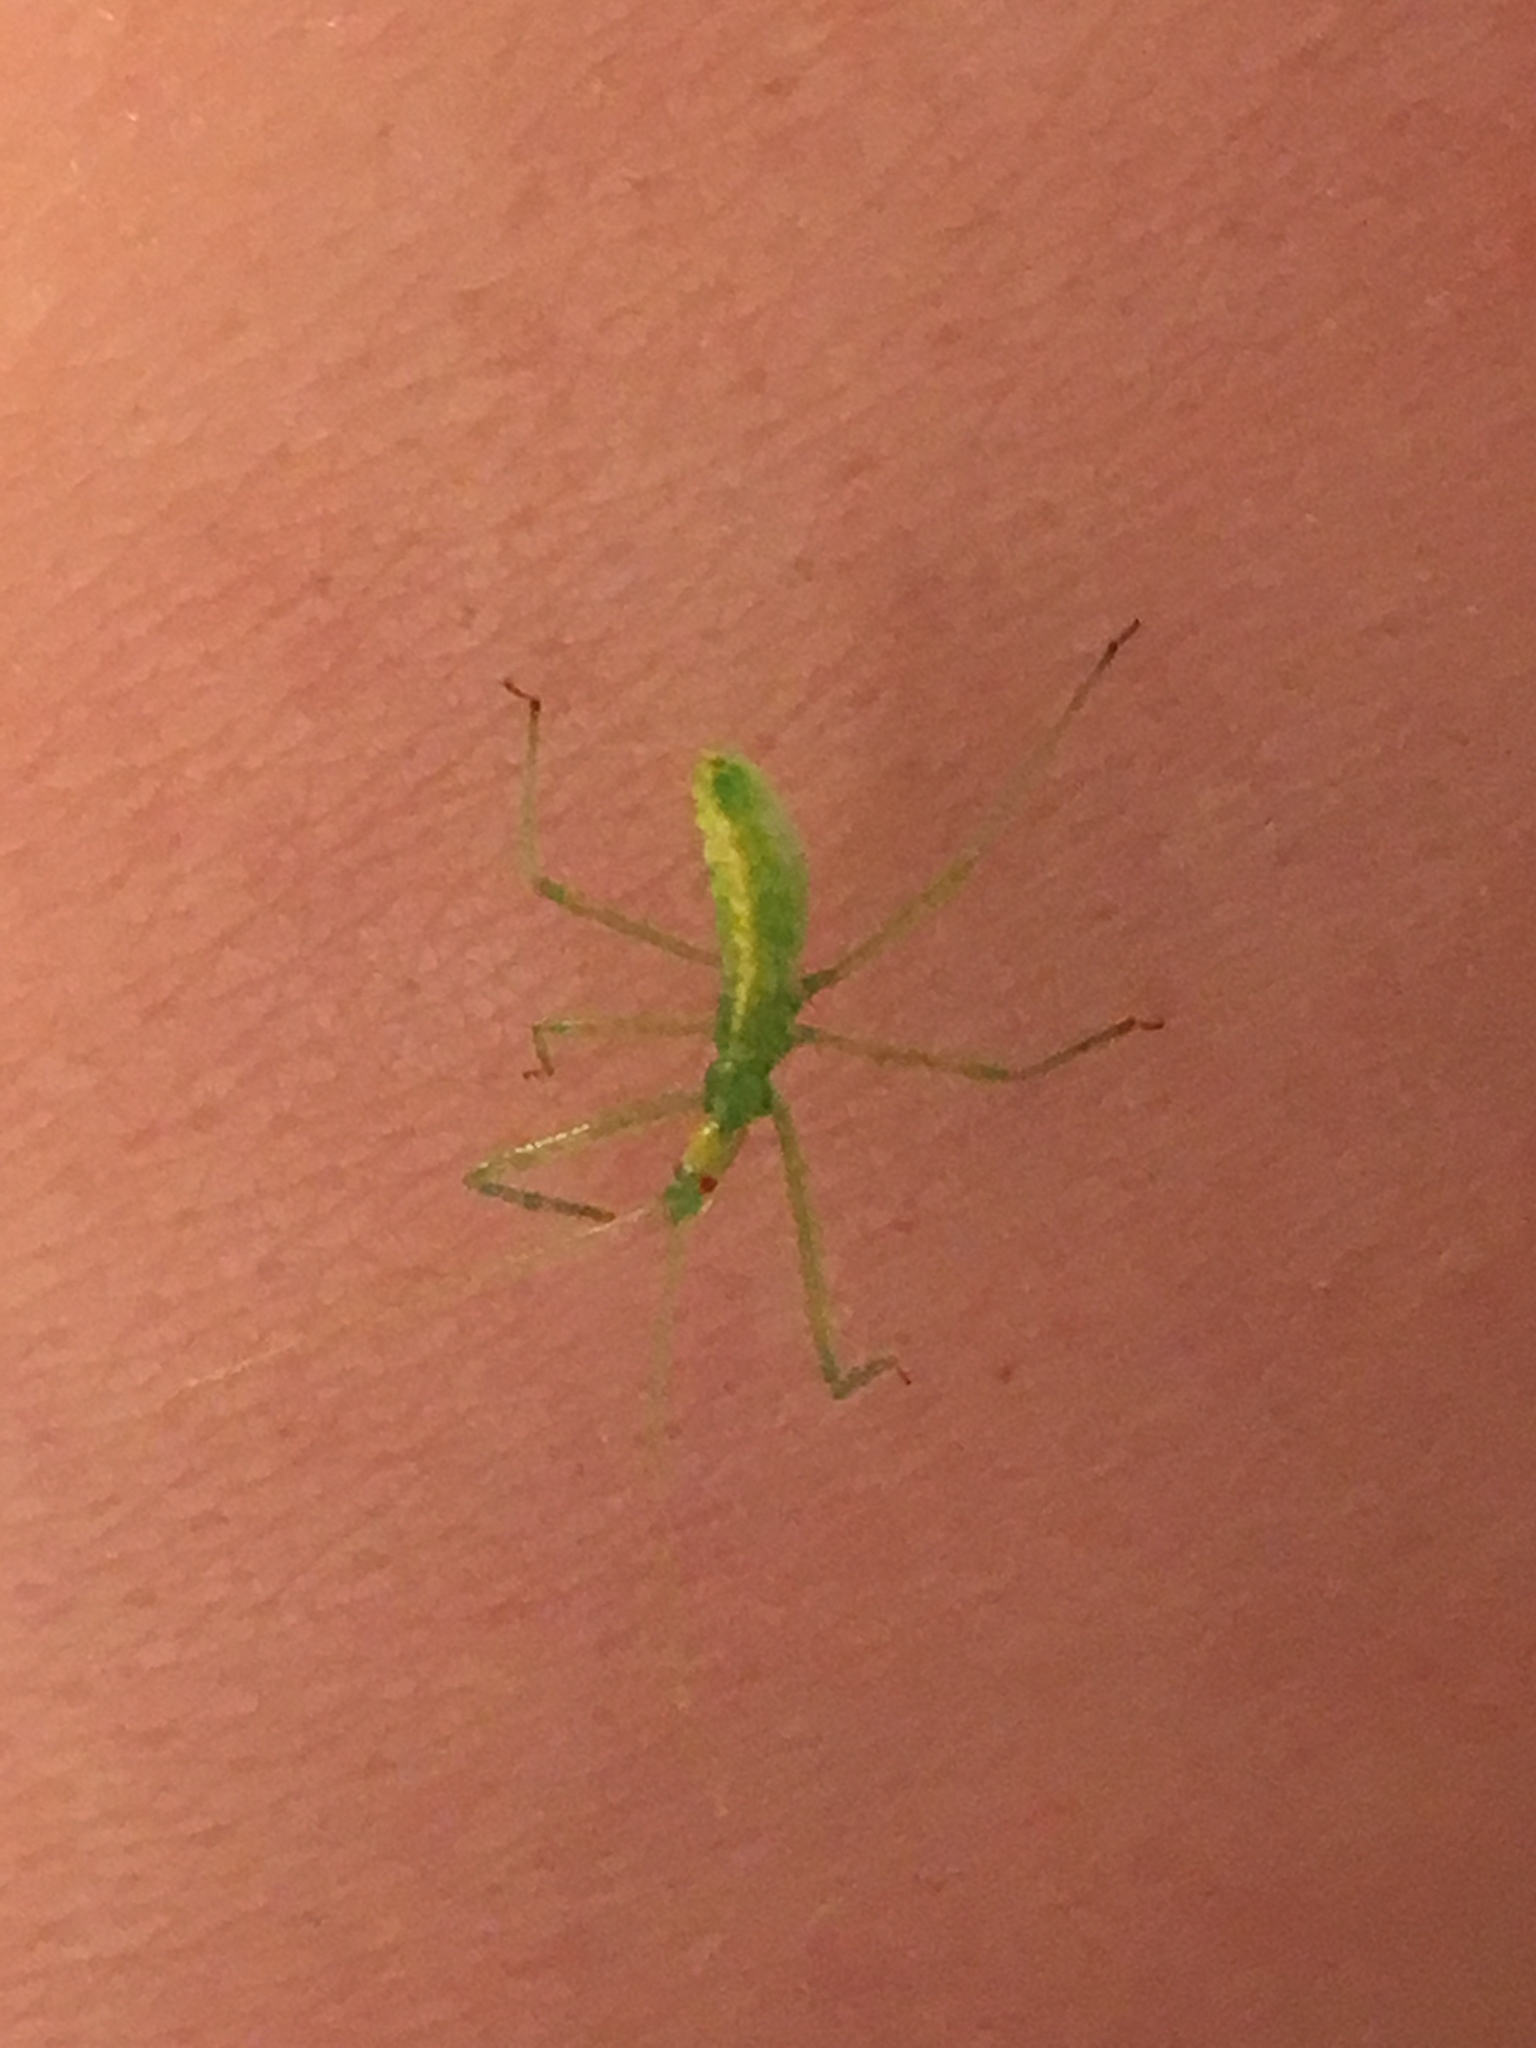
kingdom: Animalia
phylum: Arthropoda
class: Insecta
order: Hemiptera
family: Reduviidae
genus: Zelus
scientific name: Zelus luridus
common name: Pale green assassin bug
